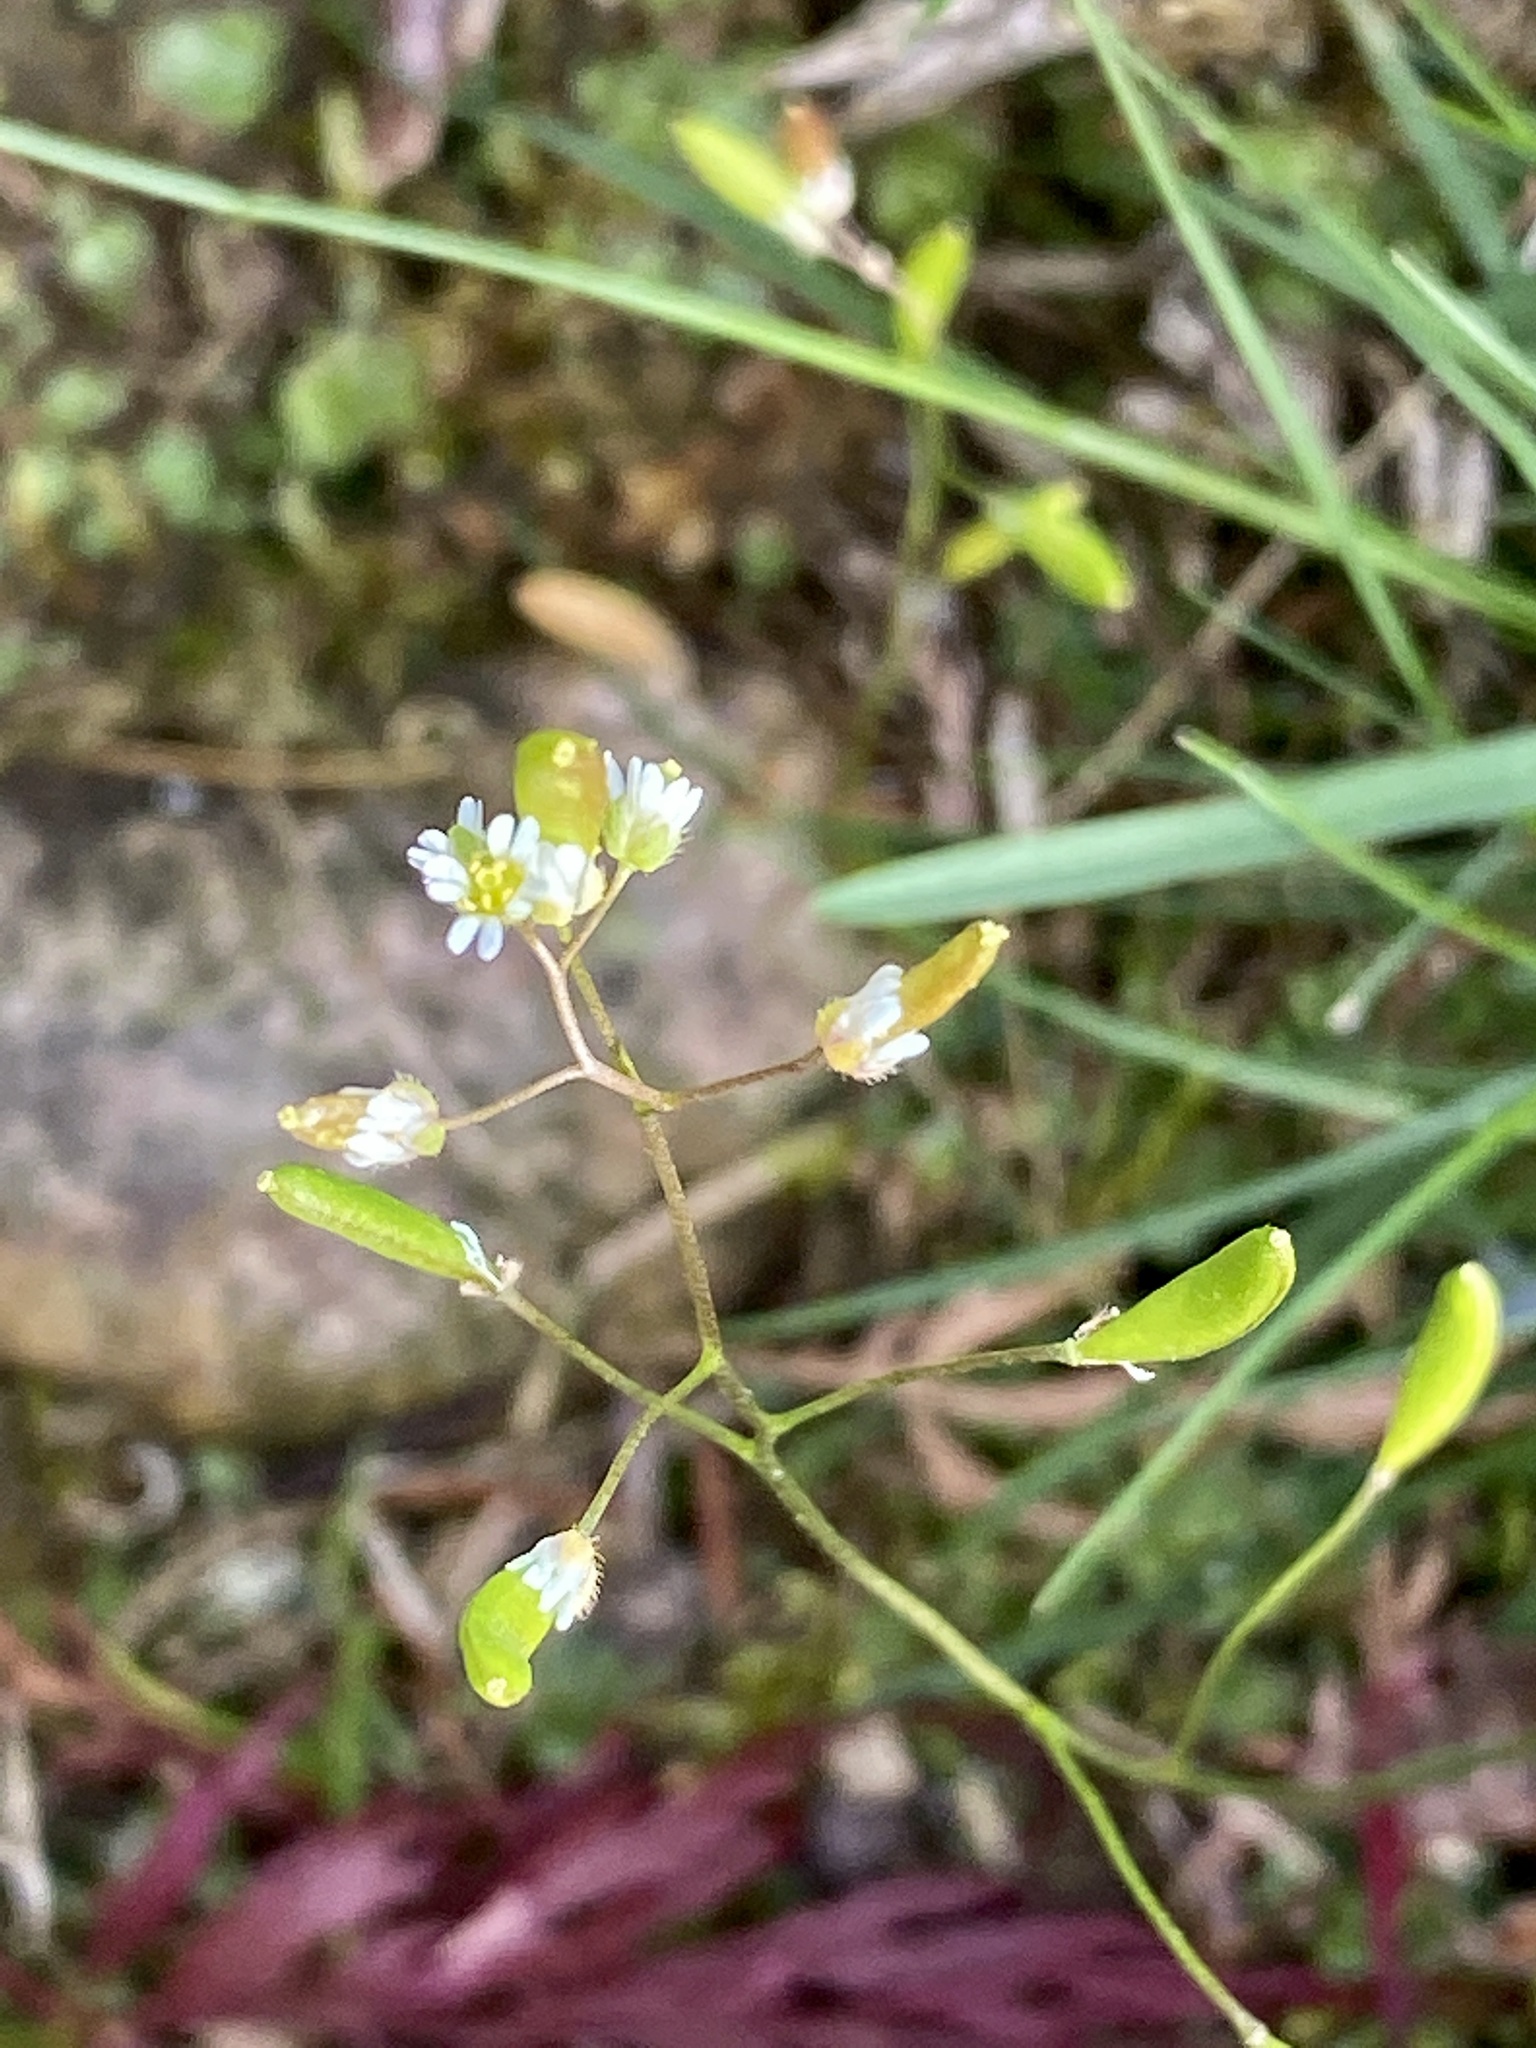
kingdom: Plantae
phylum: Tracheophyta
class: Magnoliopsida
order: Brassicales
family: Brassicaceae
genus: Draba
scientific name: Draba verna
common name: Spring draba
